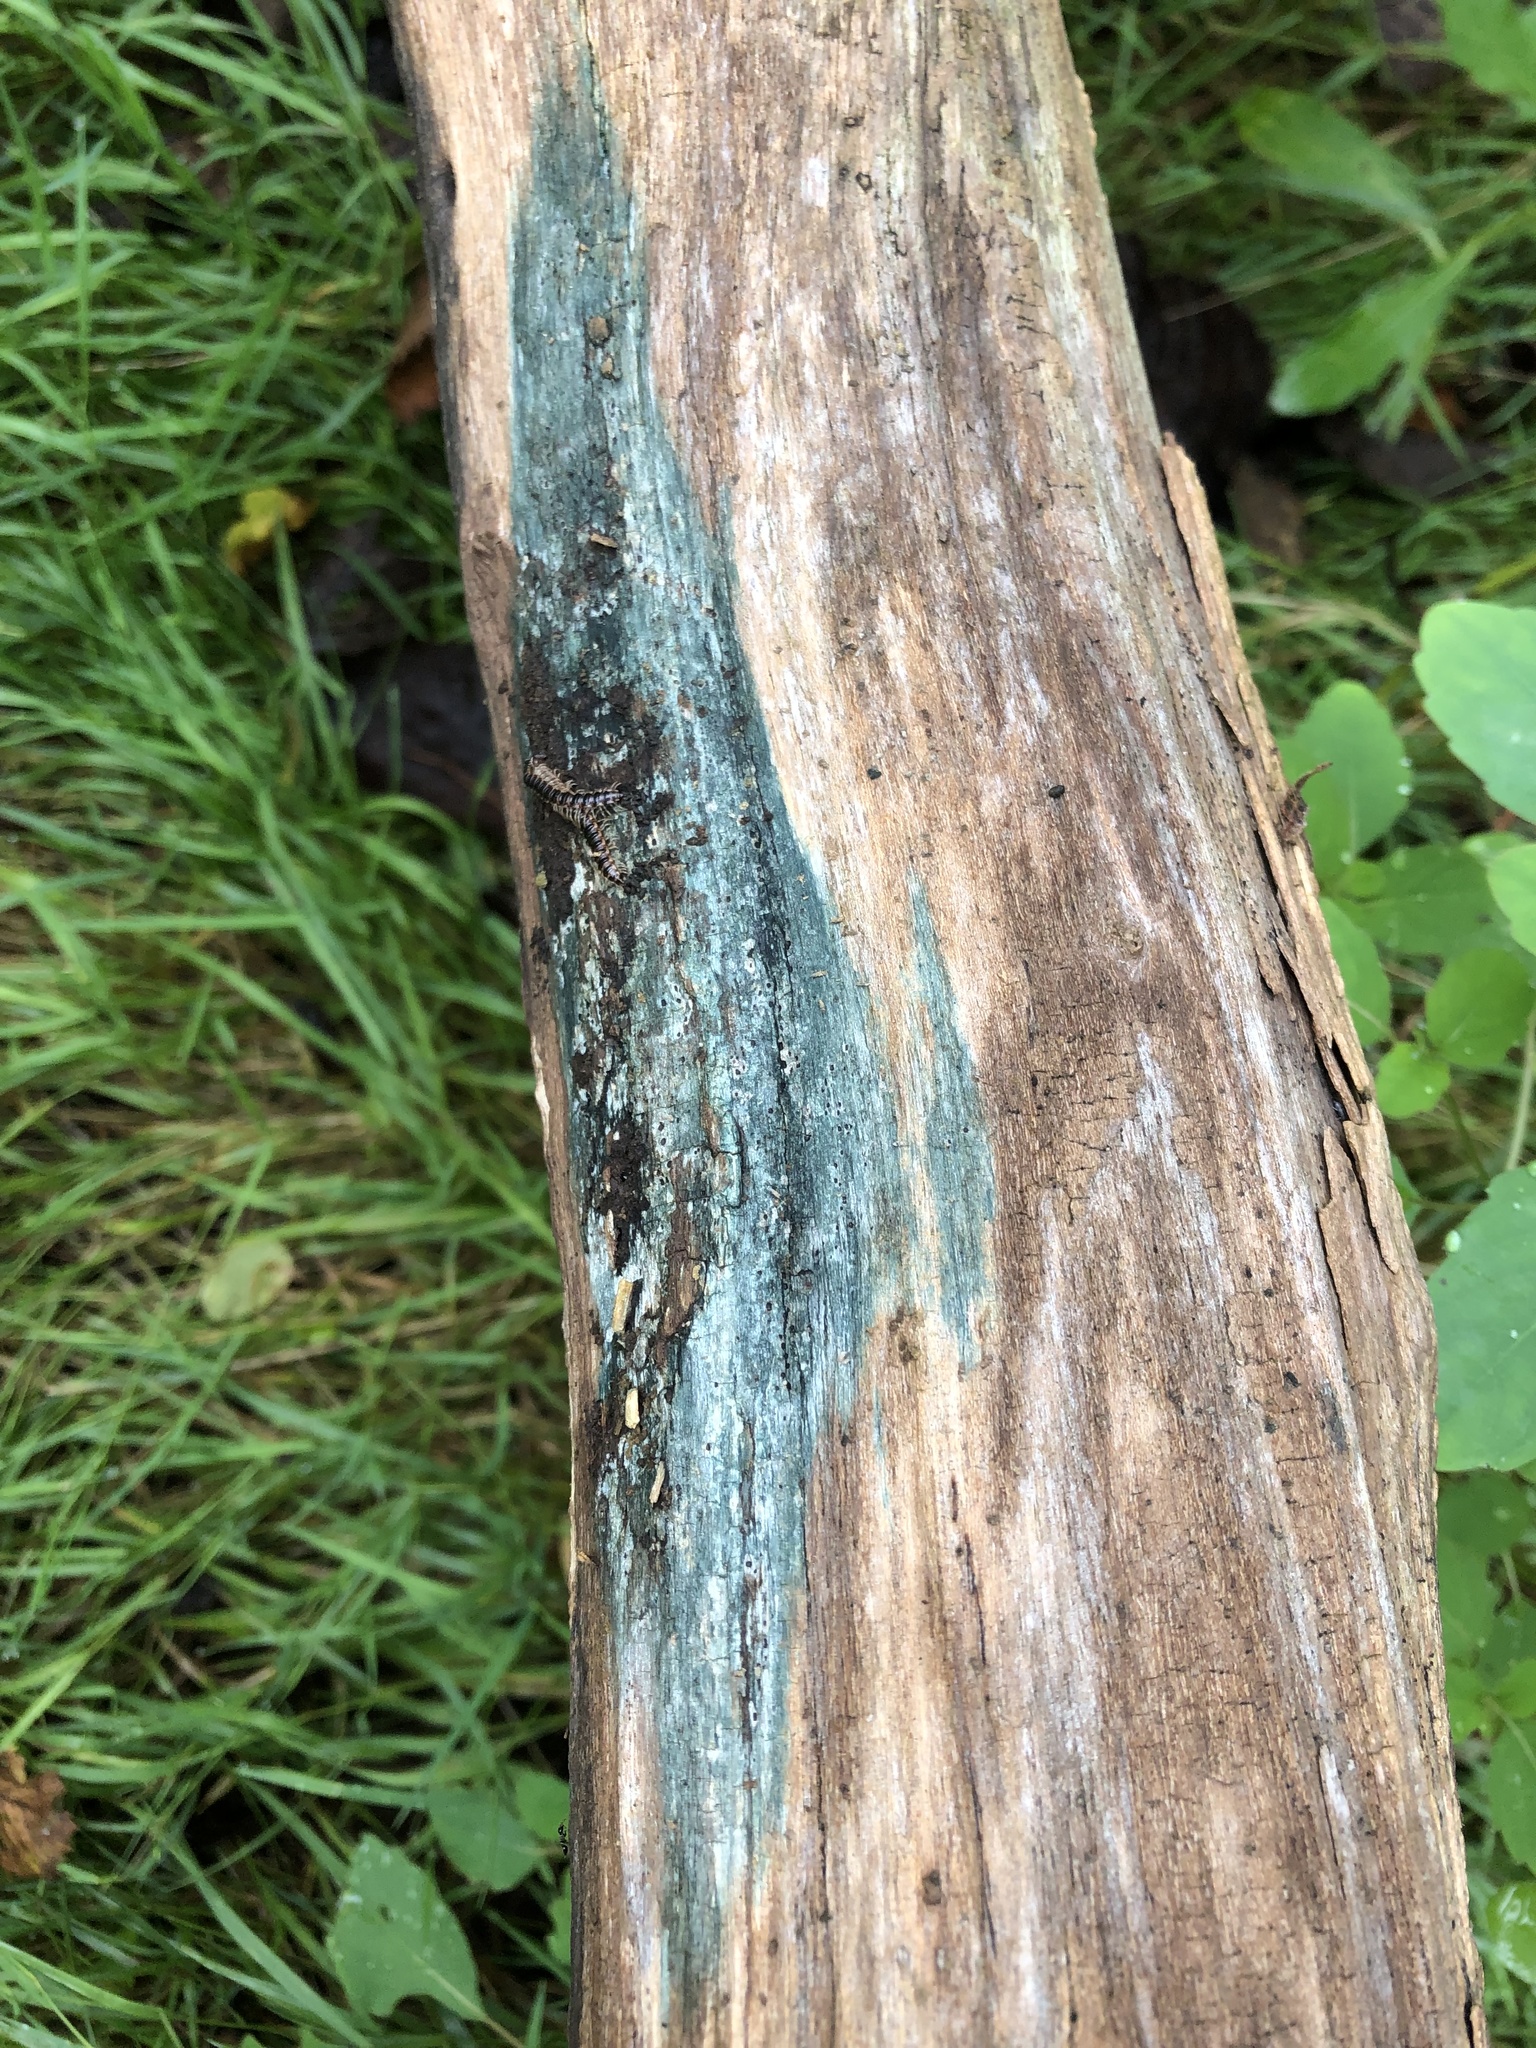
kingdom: Fungi
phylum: Ascomycota
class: Leotiomycetes
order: Helotiales
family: Chlorociboriaceae
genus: Chlorociboria
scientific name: Chlorociboria aeruginascens
